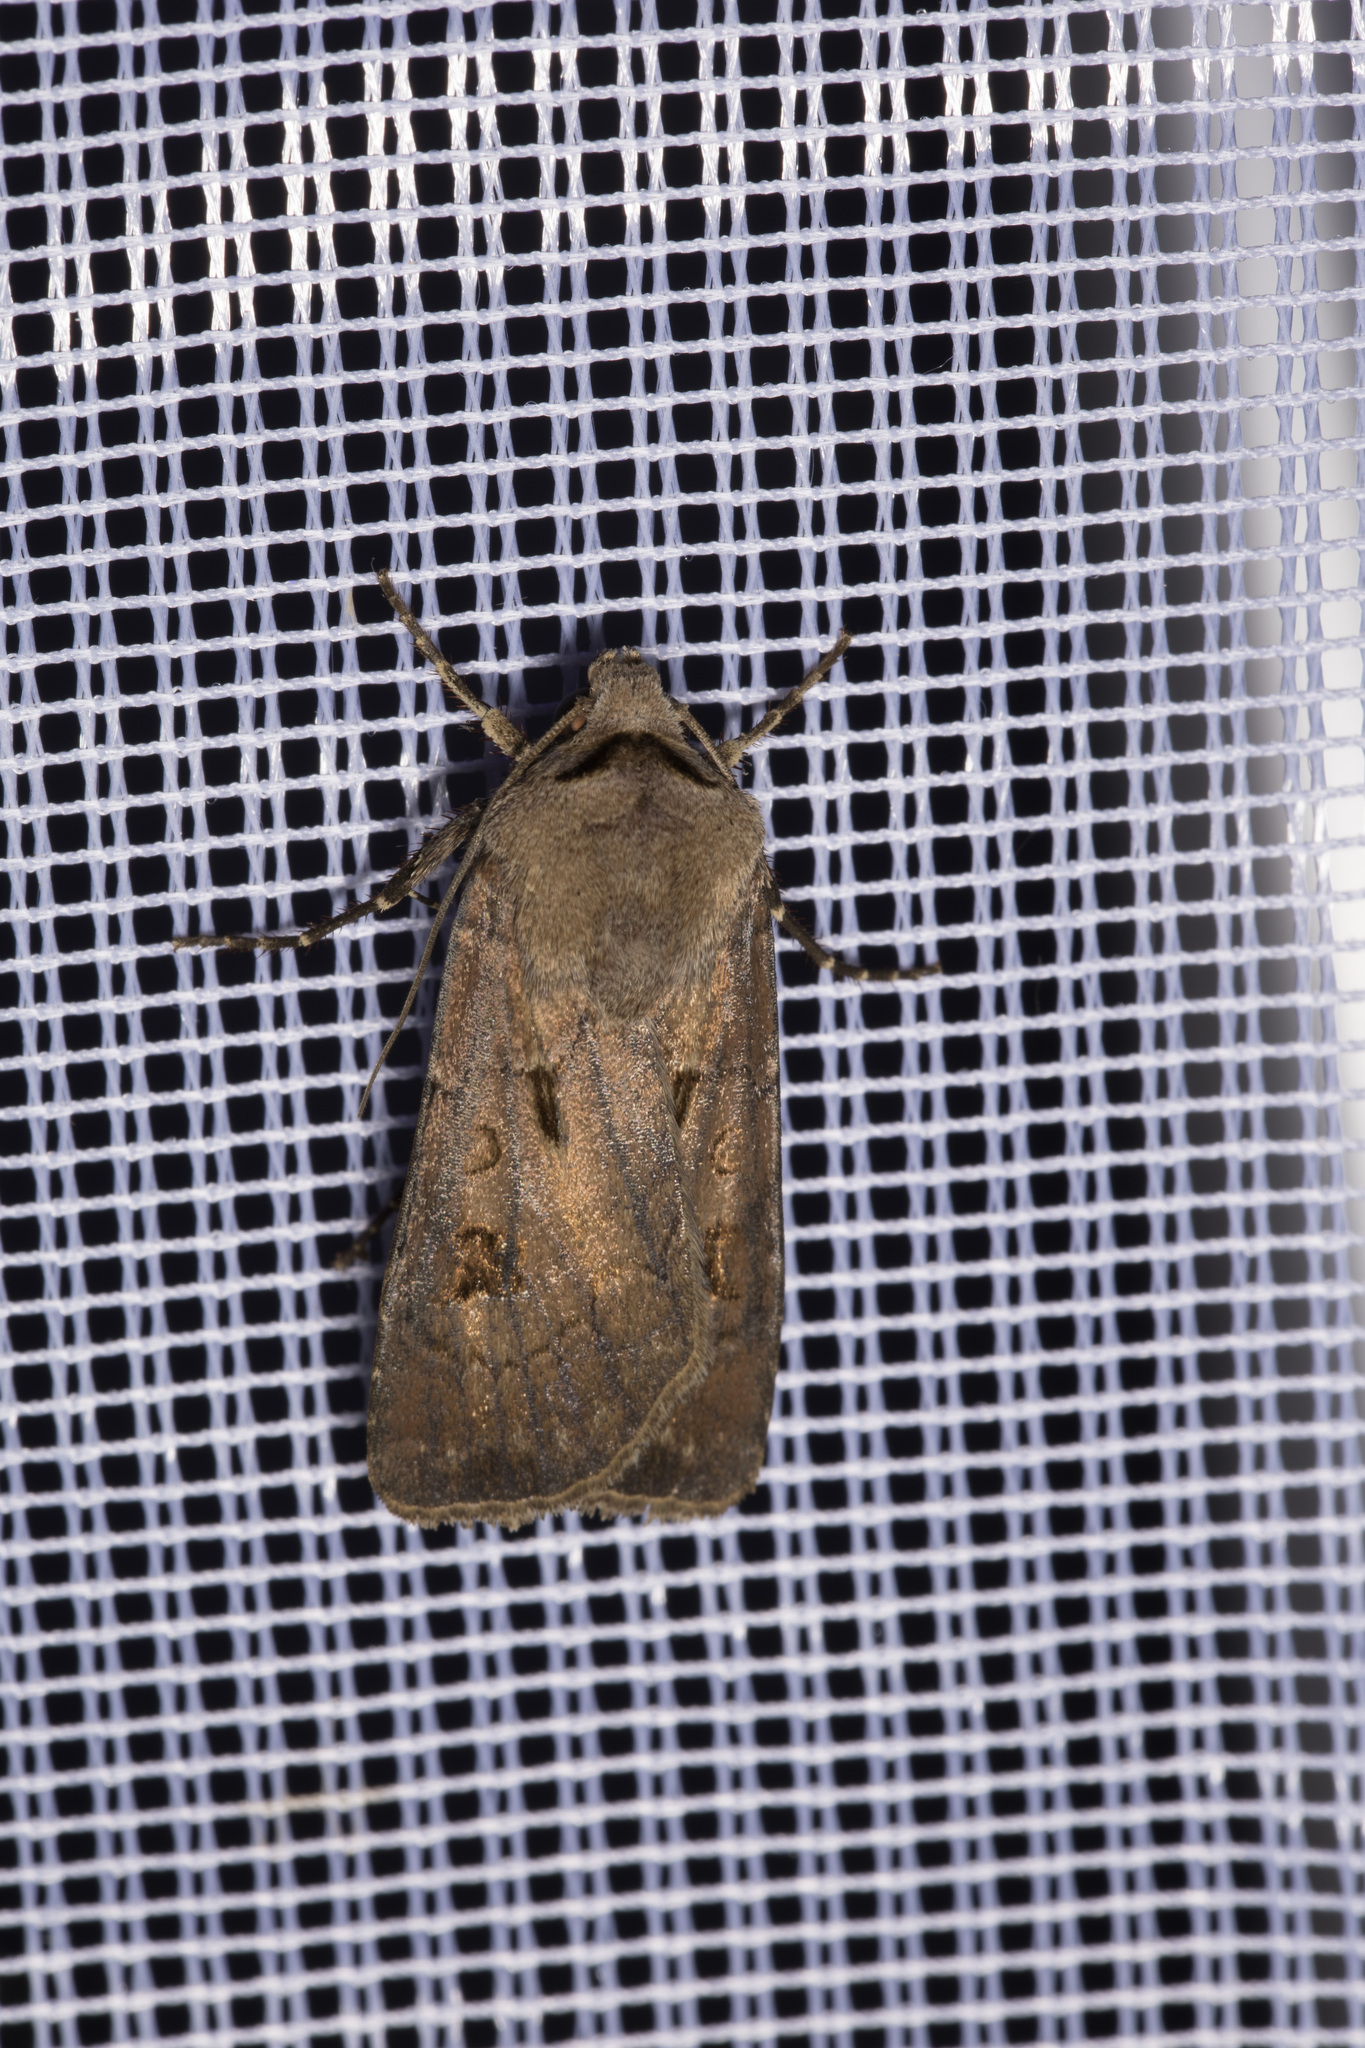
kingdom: Animalia
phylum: Arthropoda
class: Insecta
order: Lepidoptera
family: Noctuidae
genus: Agrotis
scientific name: Agrotis exclamationis
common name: Heart and dart
